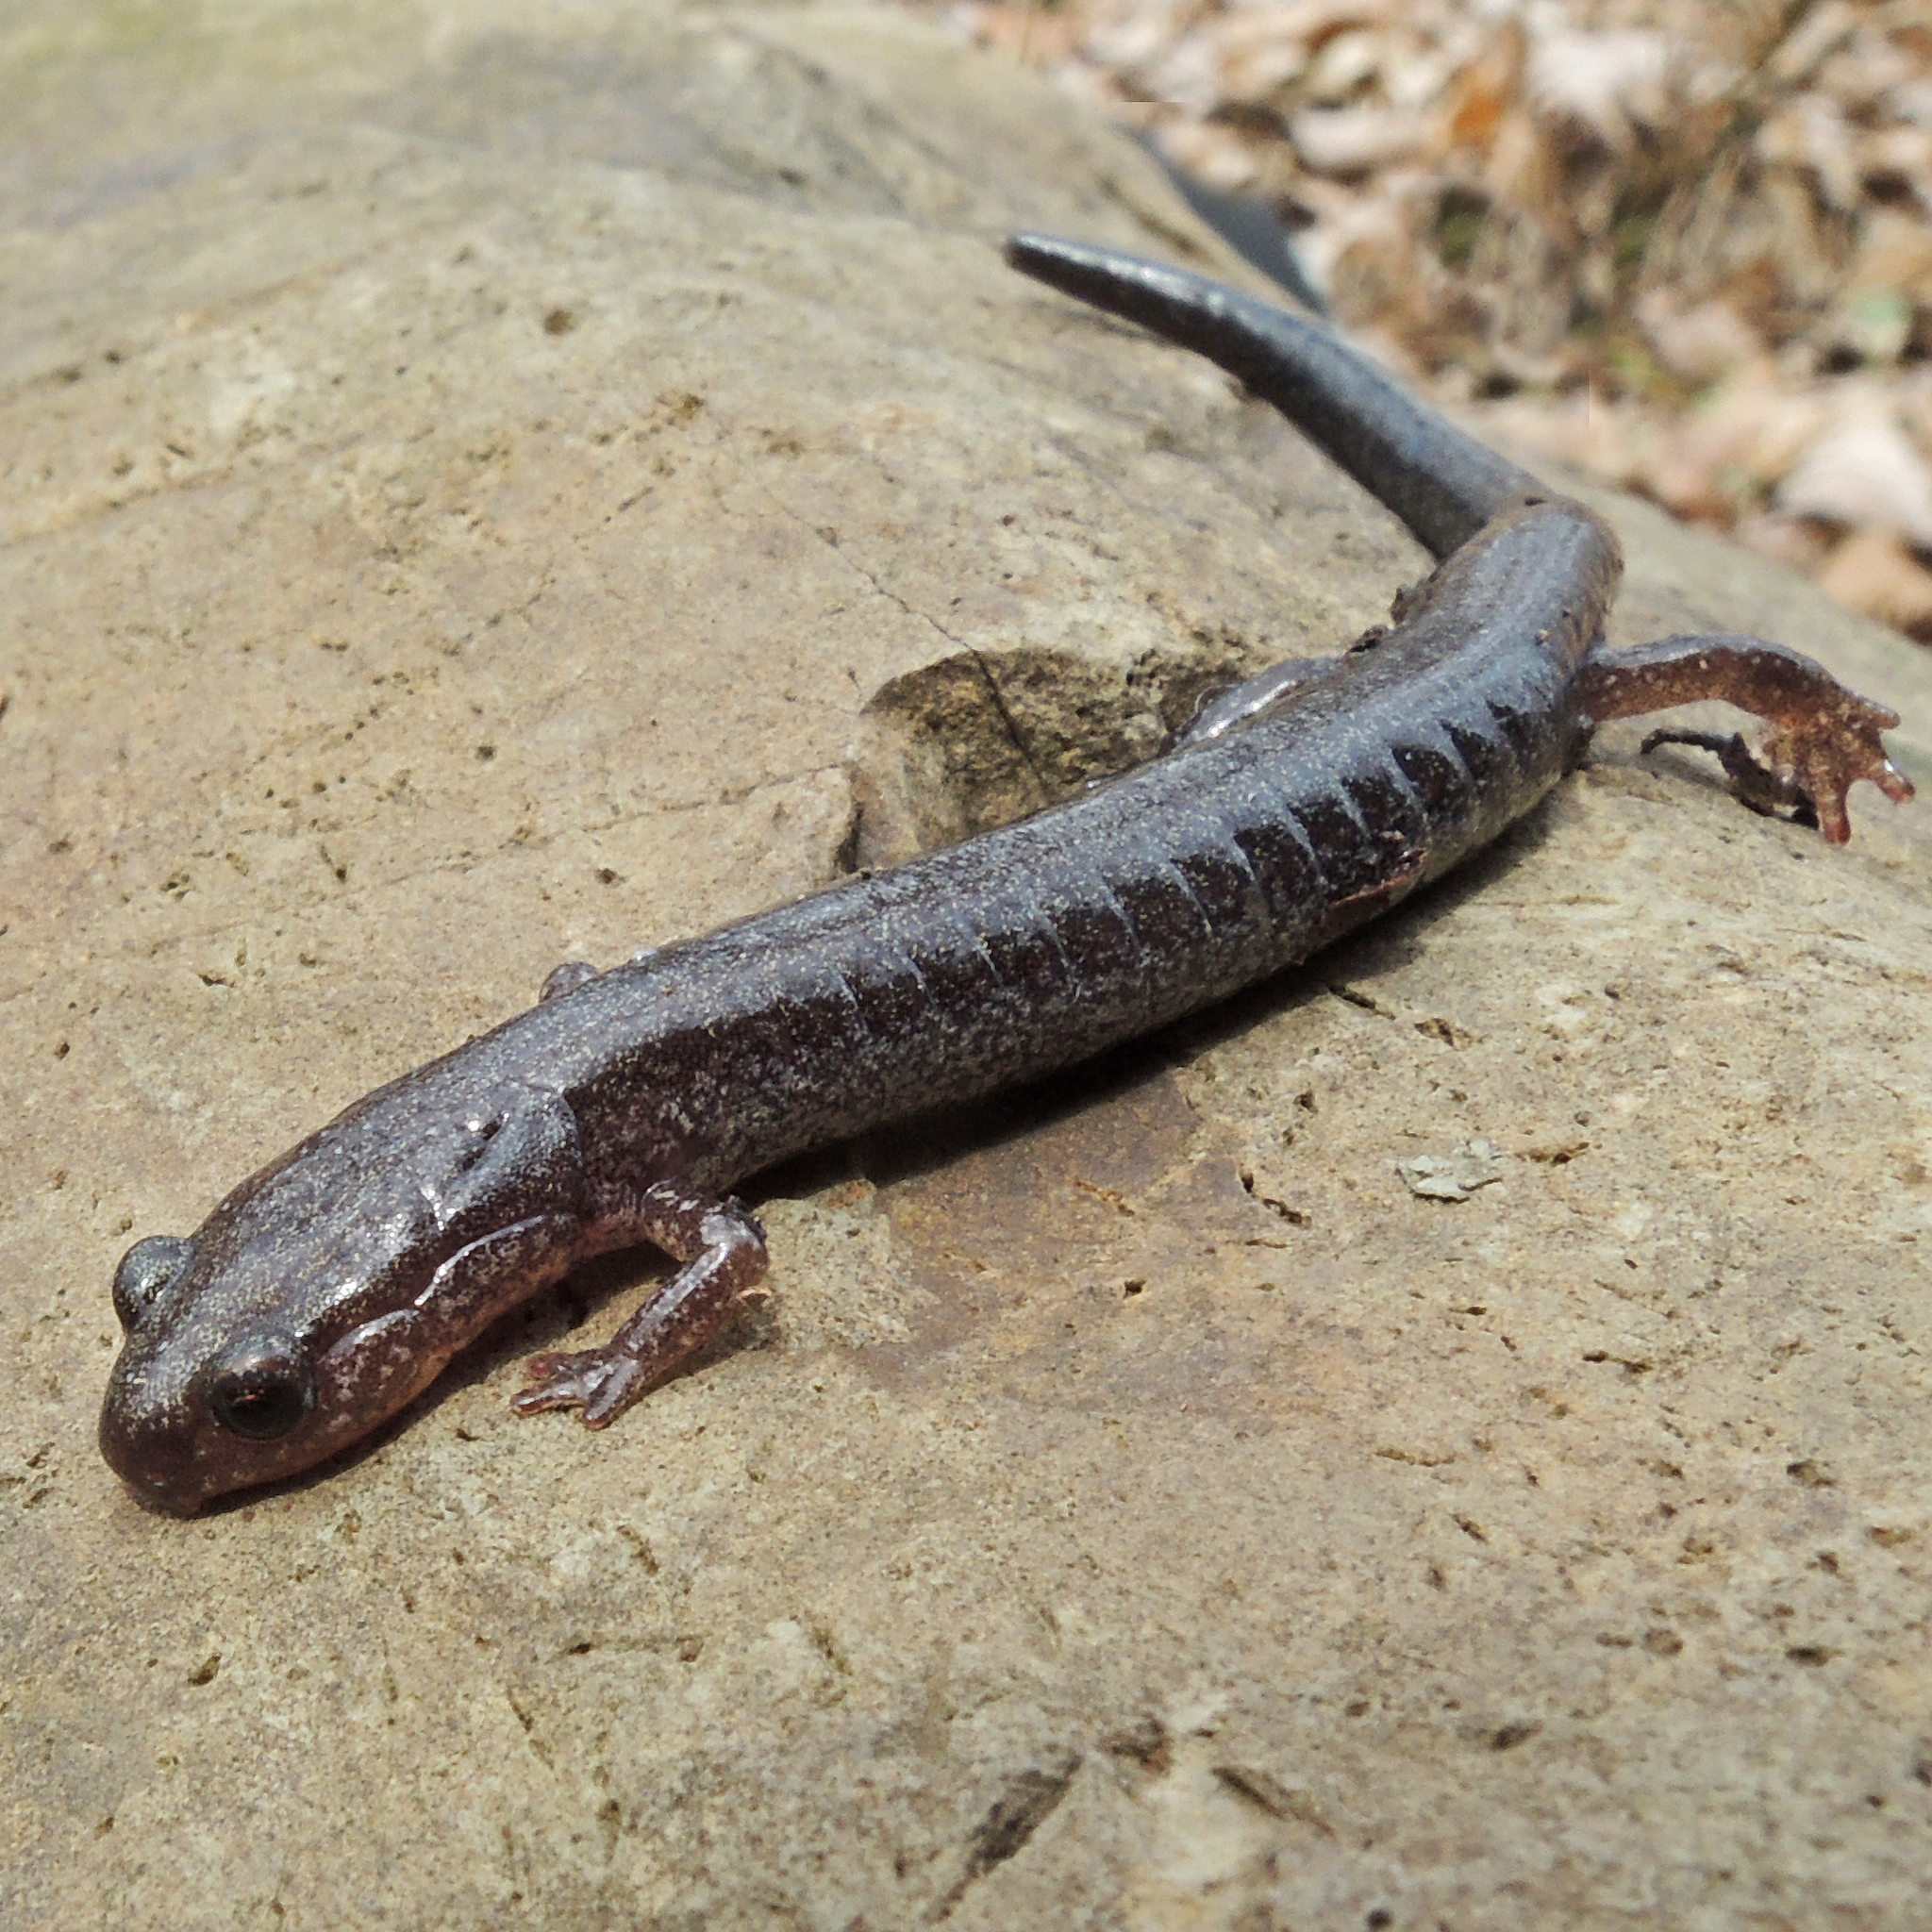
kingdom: Animalia
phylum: Chordata
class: Amphibia
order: Caudata
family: Plethodontidae
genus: Plethodon
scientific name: Plethodon cinereus
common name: Redback salamander
